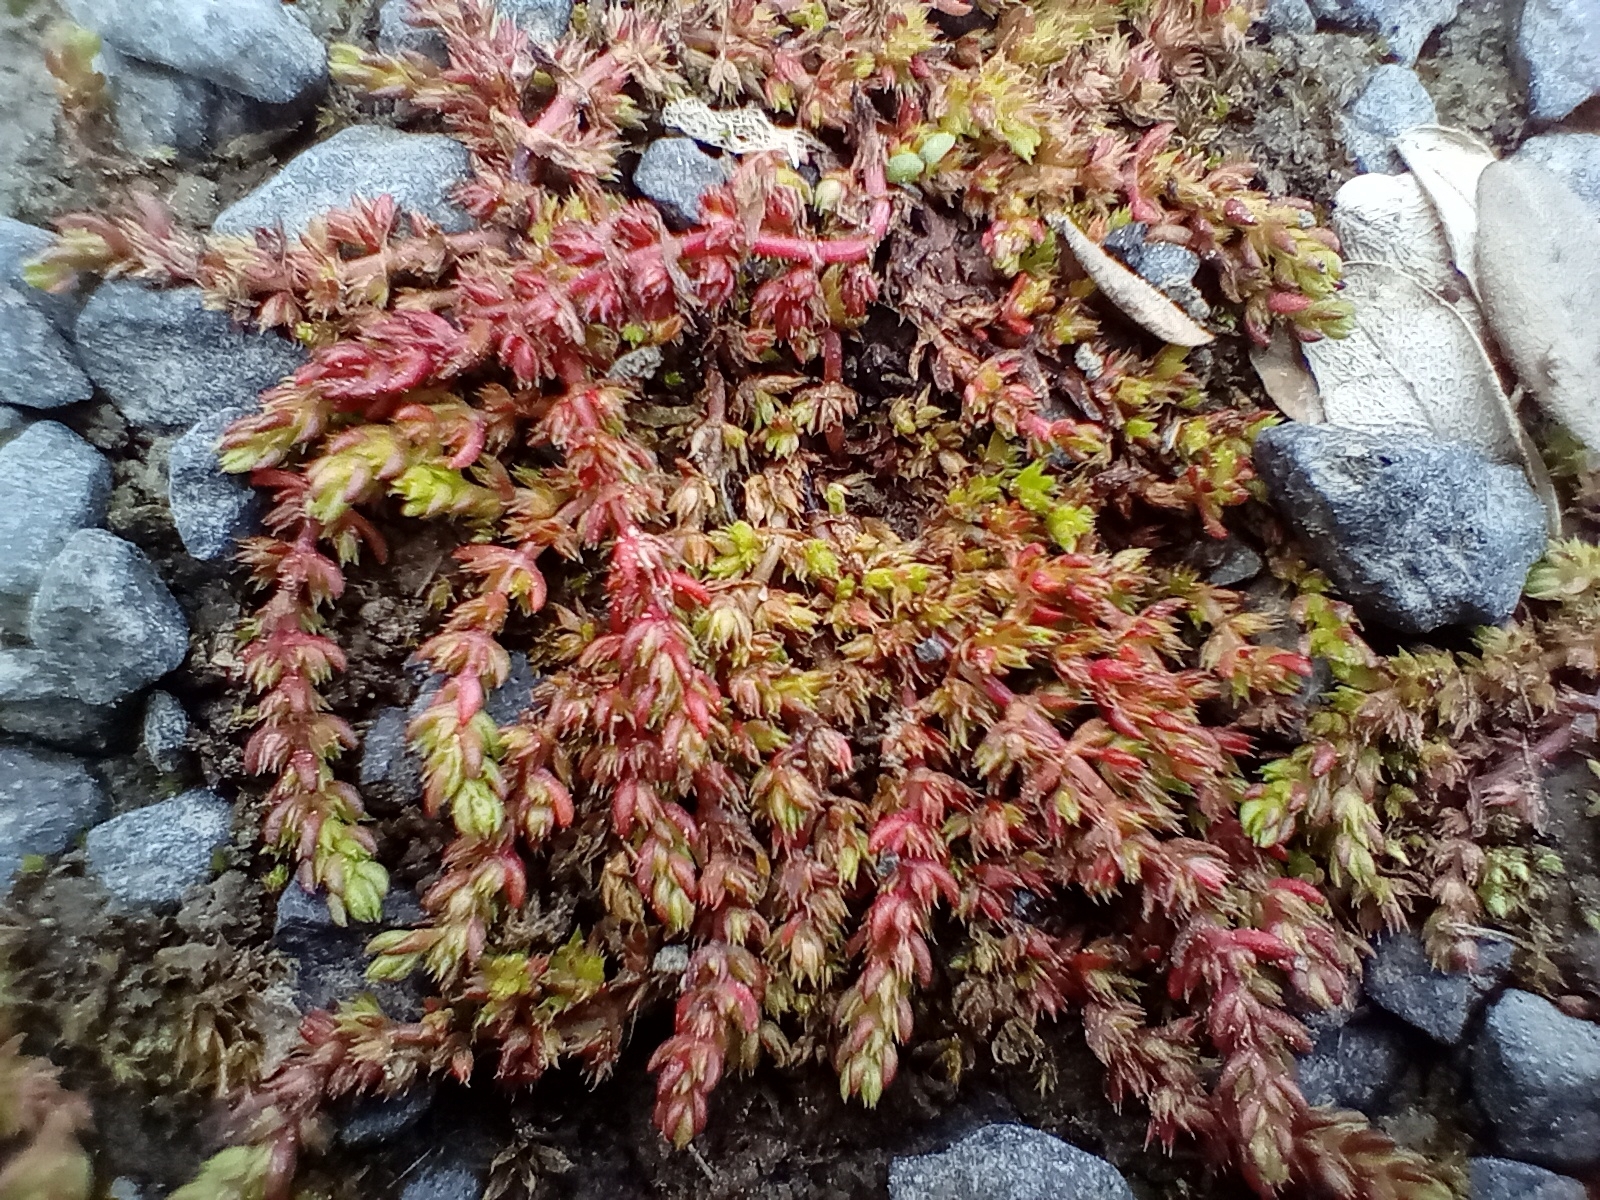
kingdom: Plantae
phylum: Tracheophyta
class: Magnoliopsida
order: Saxifragales
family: Crassulaceae
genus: Crassula
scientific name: Crassula alata
